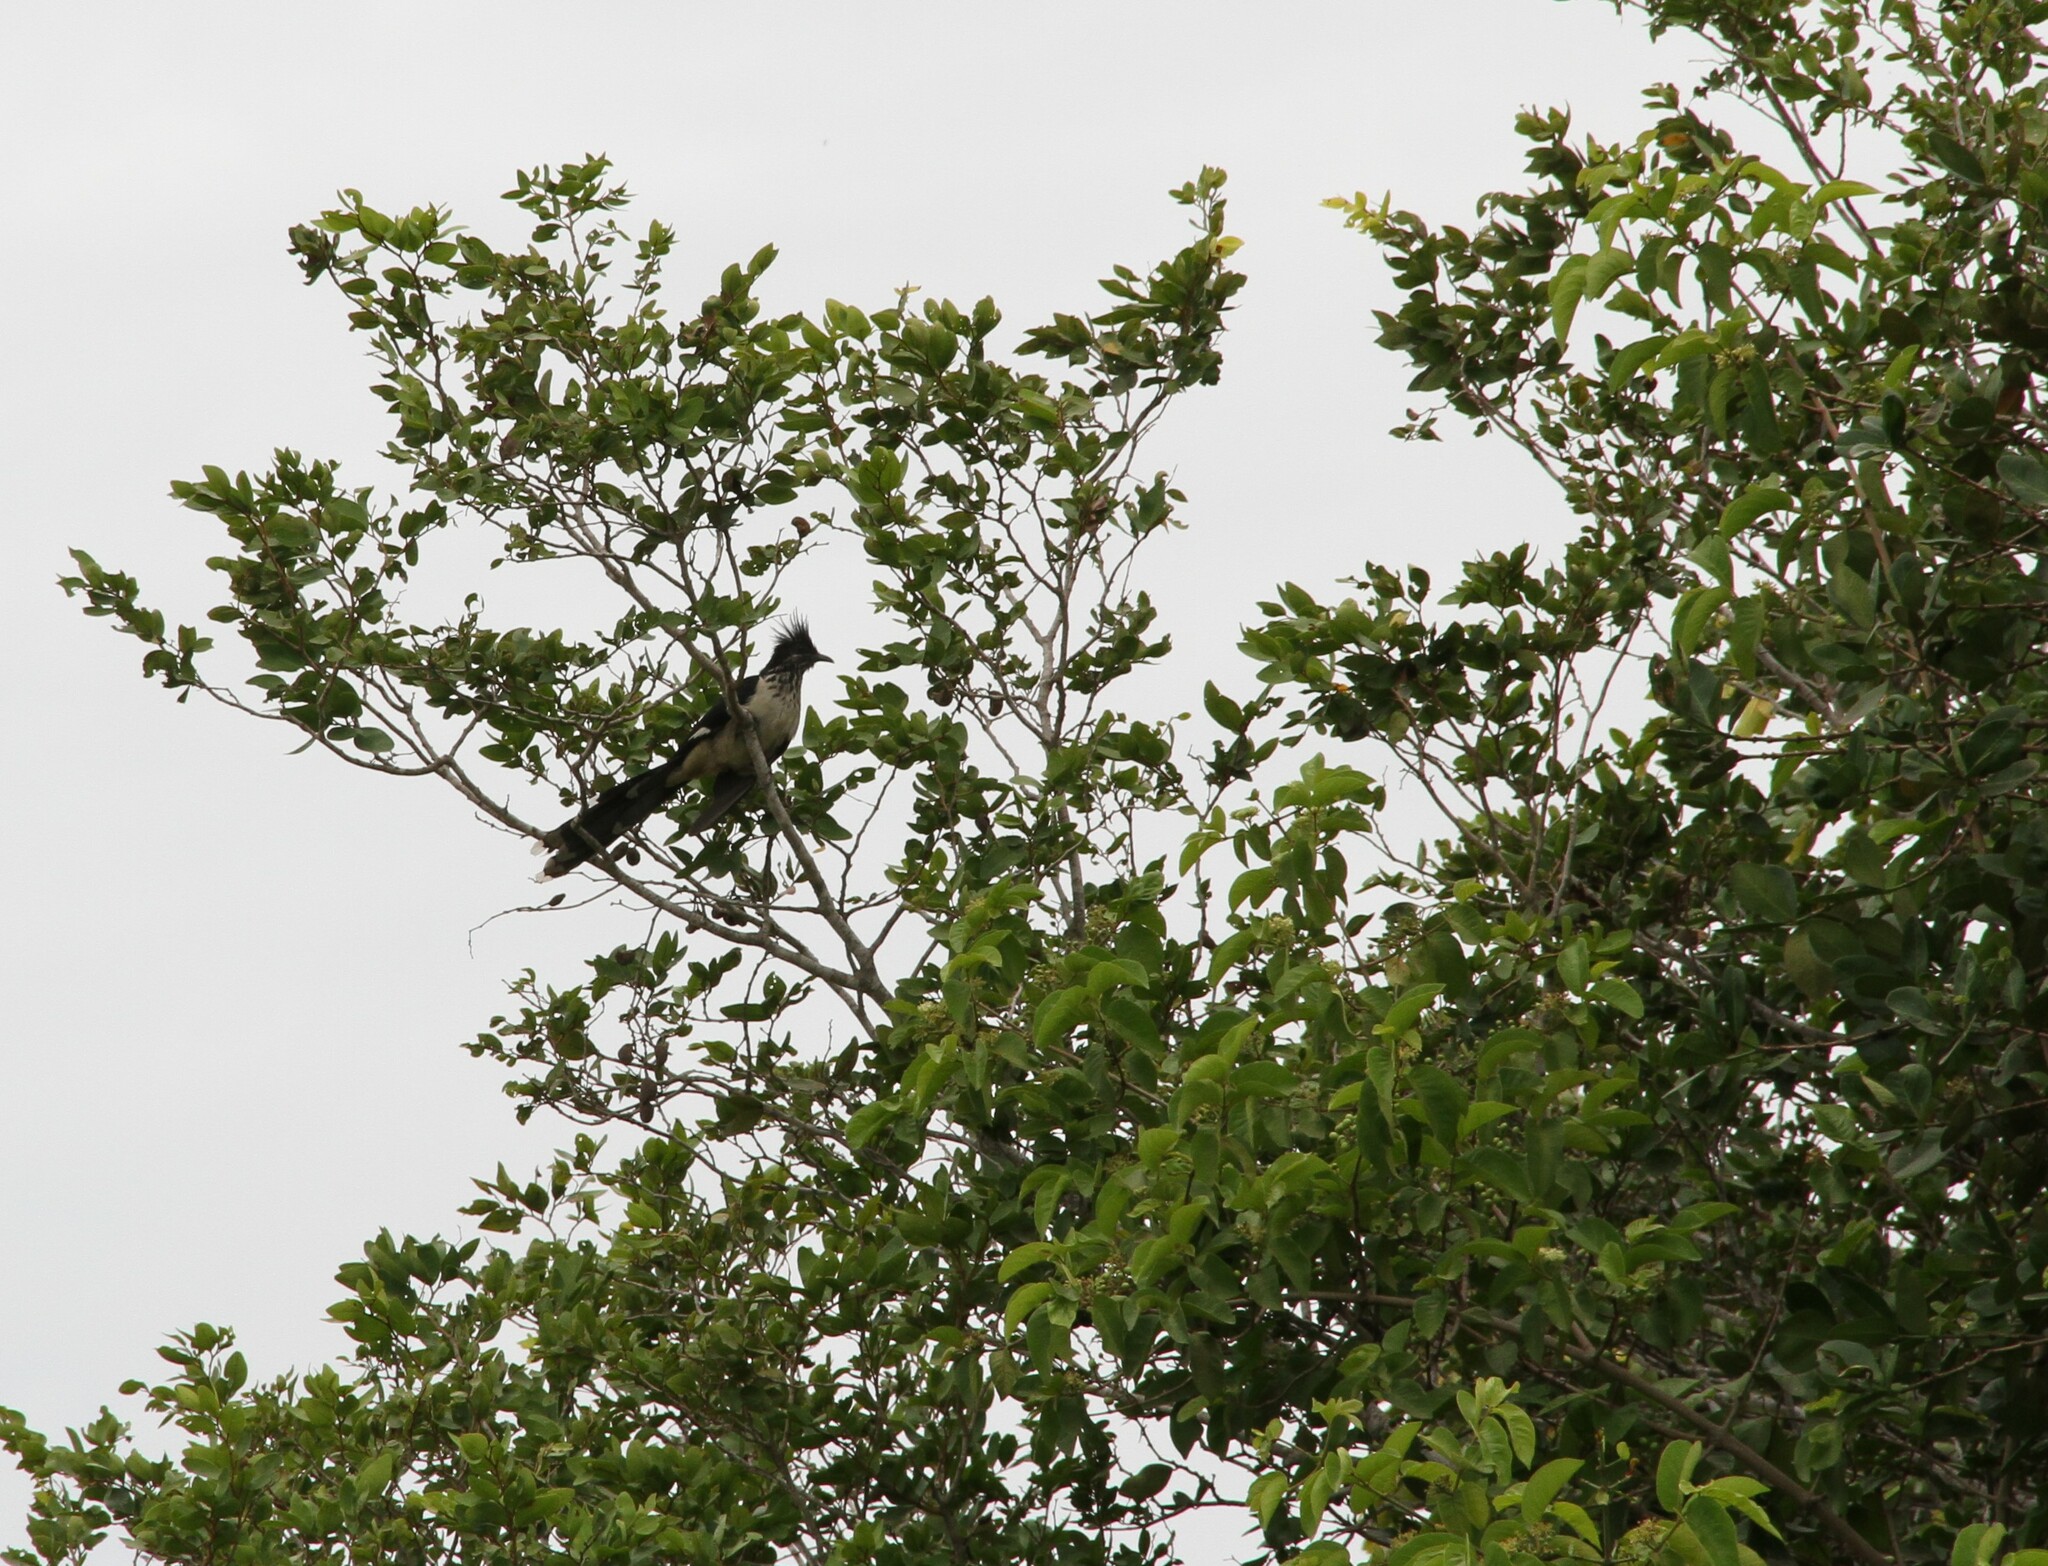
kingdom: Animalia
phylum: Chordata
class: Aves
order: Cuculiformes
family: Cuculidae
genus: Clamator
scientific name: Clamator levaillantii
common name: Levaillant's cuckoo
